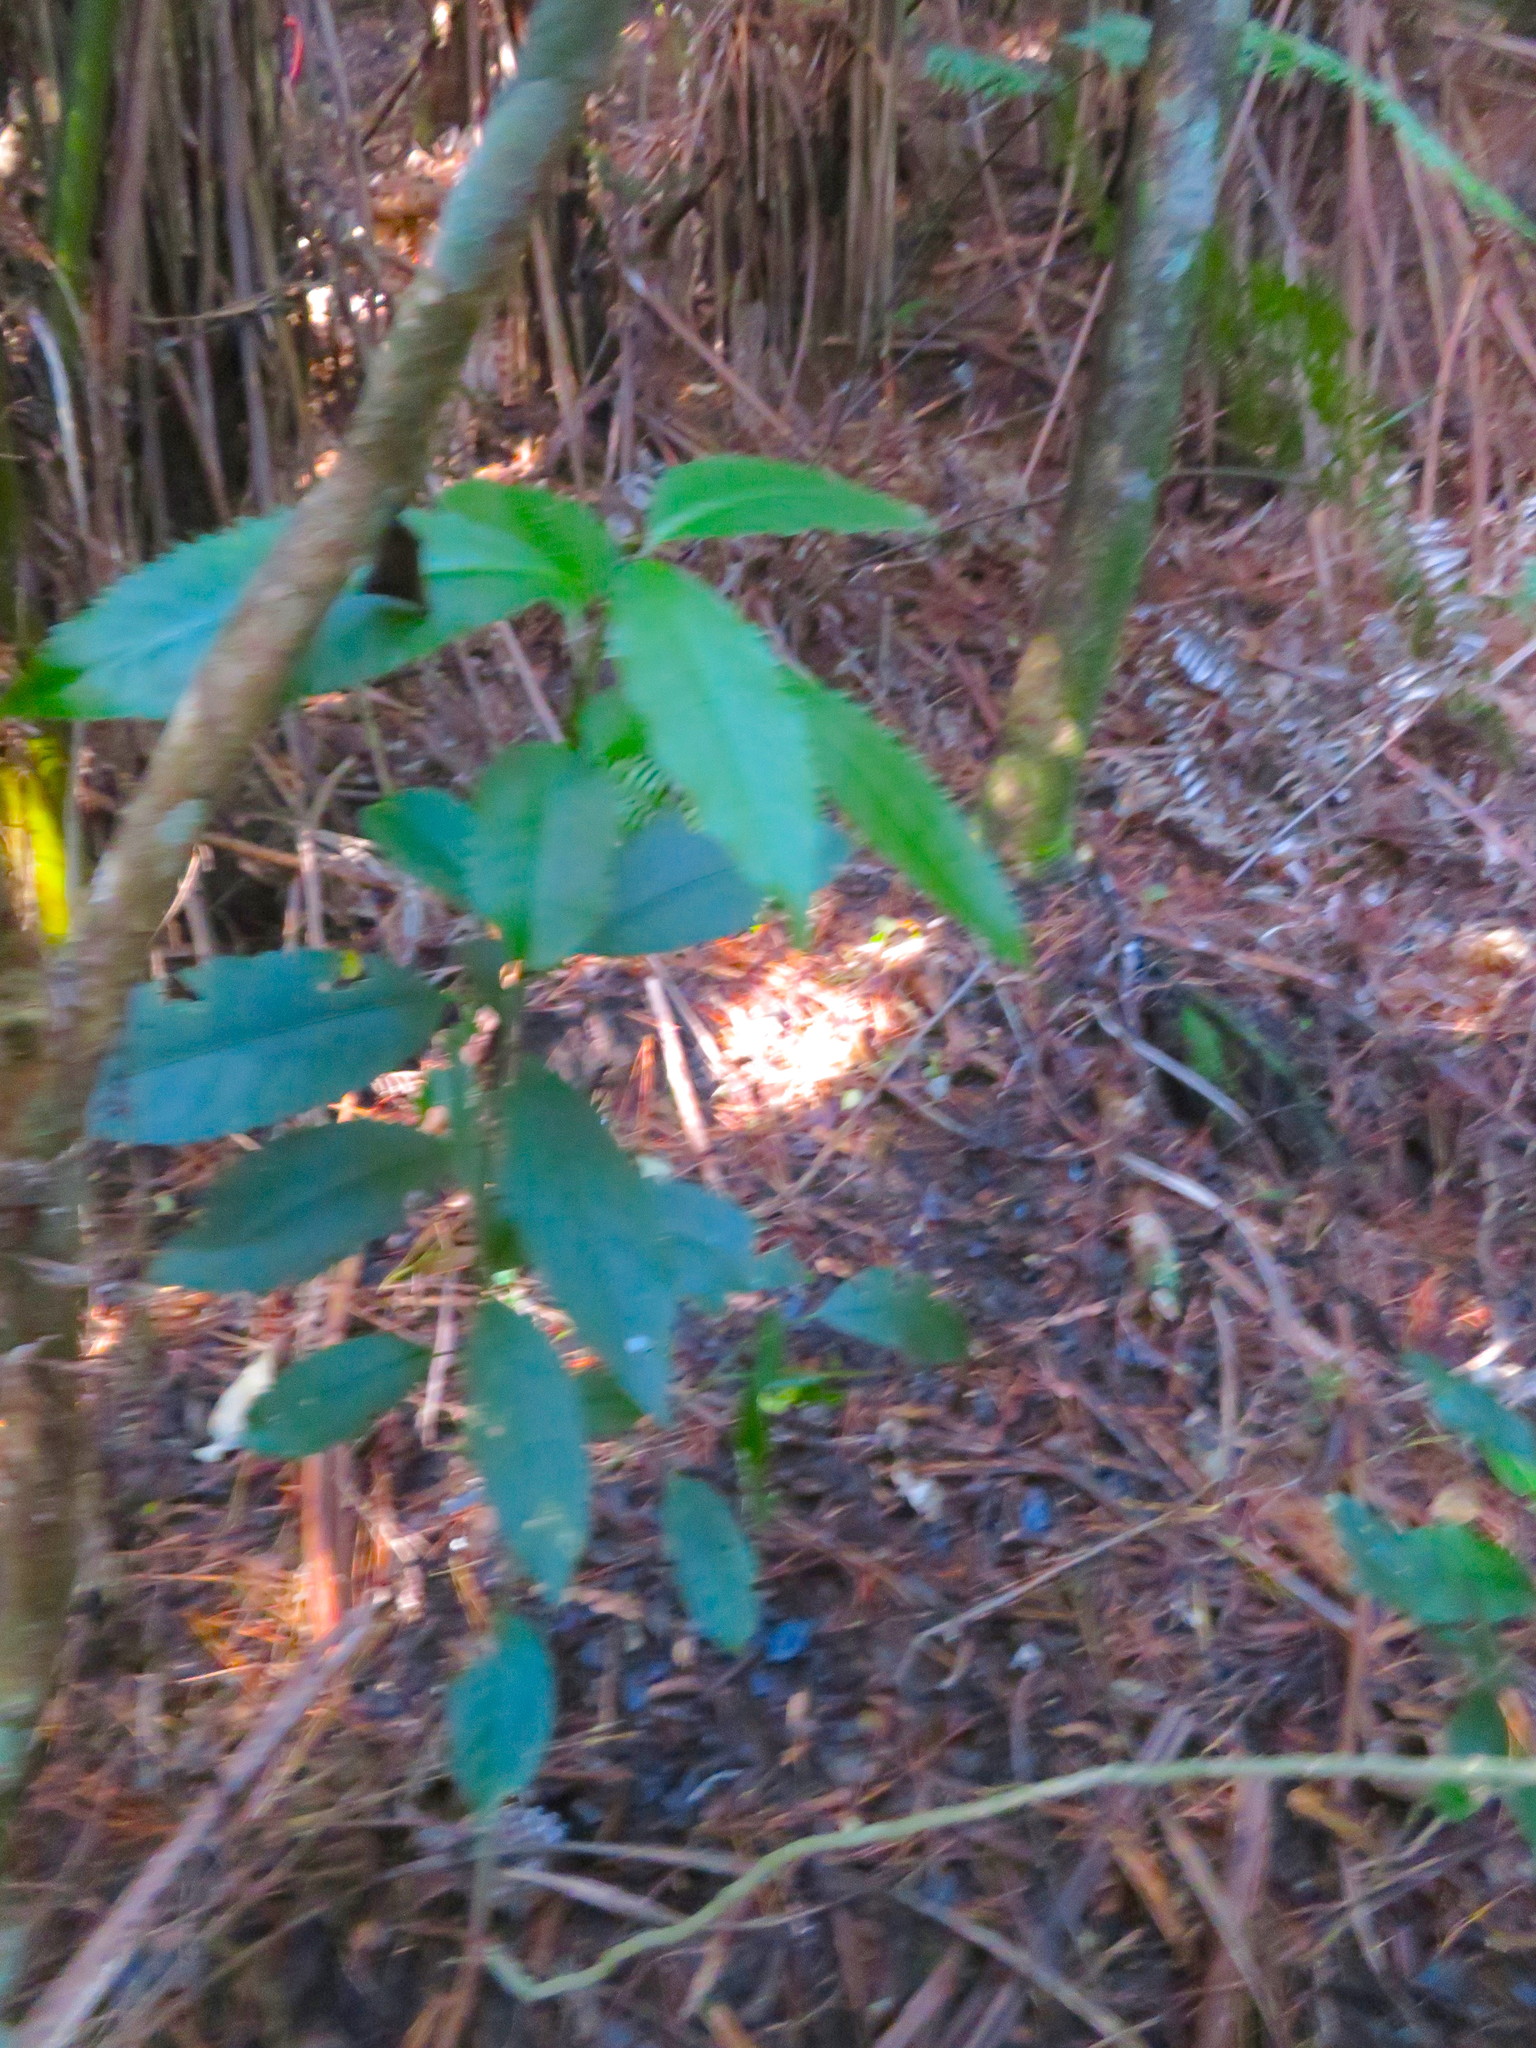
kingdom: Plantae
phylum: Tracheophyta
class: Magnoliopsida
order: Malpighiales
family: Violaceae
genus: Melicytus
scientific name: Melicytus ramiflorus
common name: Mahoe
